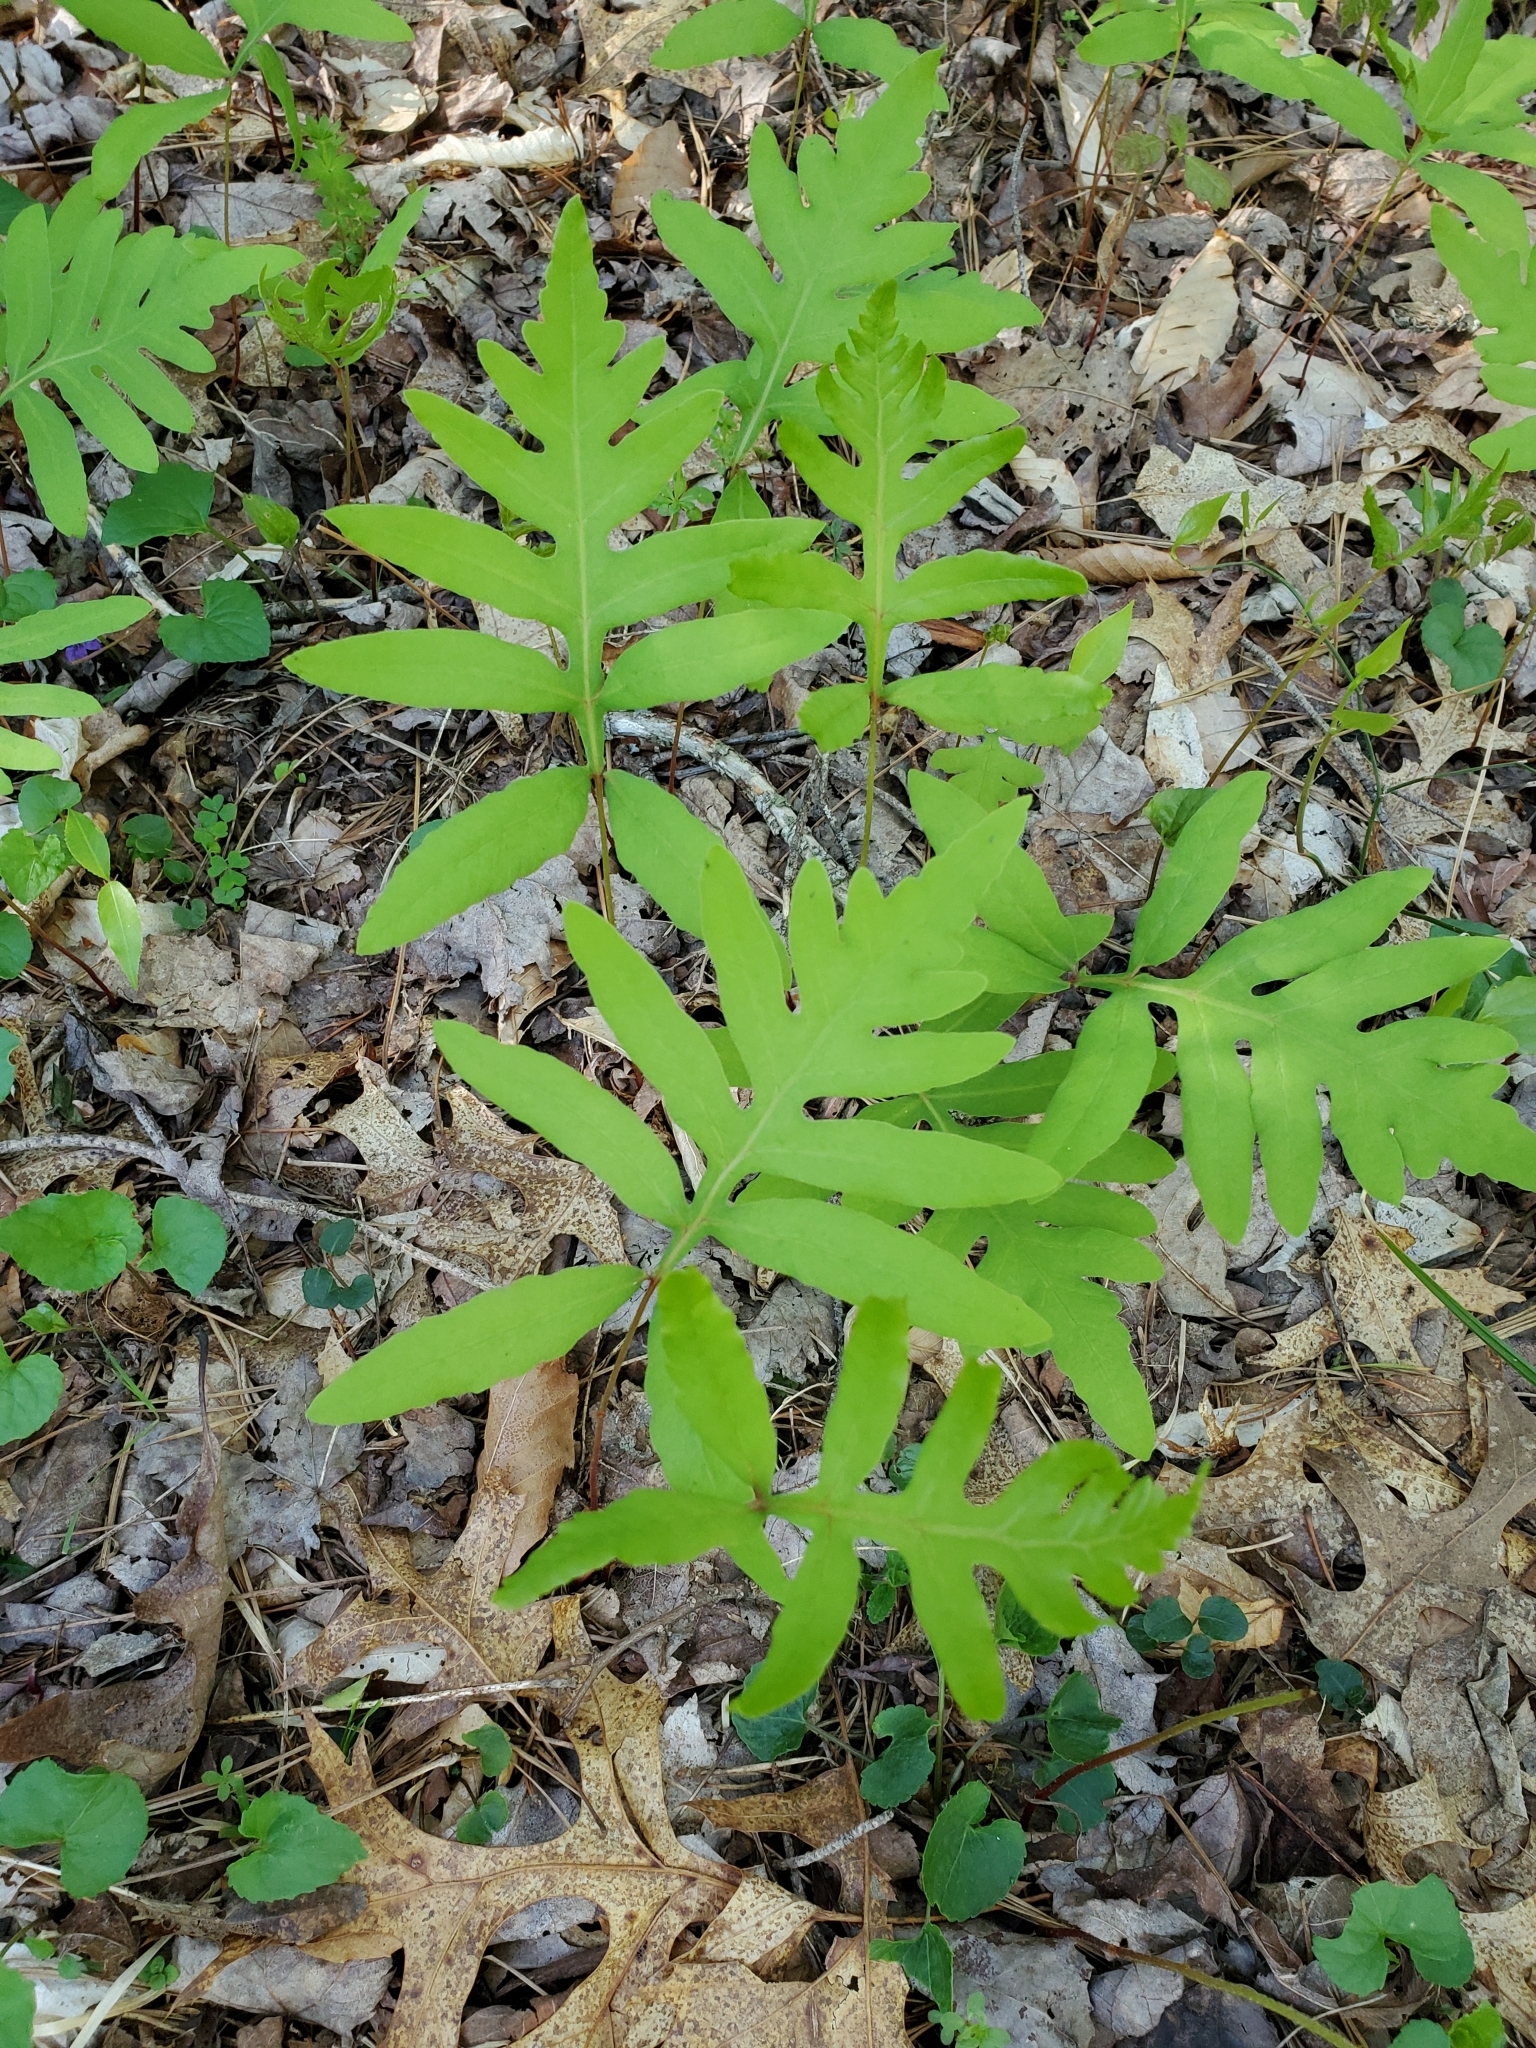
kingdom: Plantae
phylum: Tracheophyta
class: Polypodiopsida
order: Polypodiales
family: Onocleaceae
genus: Onoclea
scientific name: Onoclea sensibilis
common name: Sensitive fern
